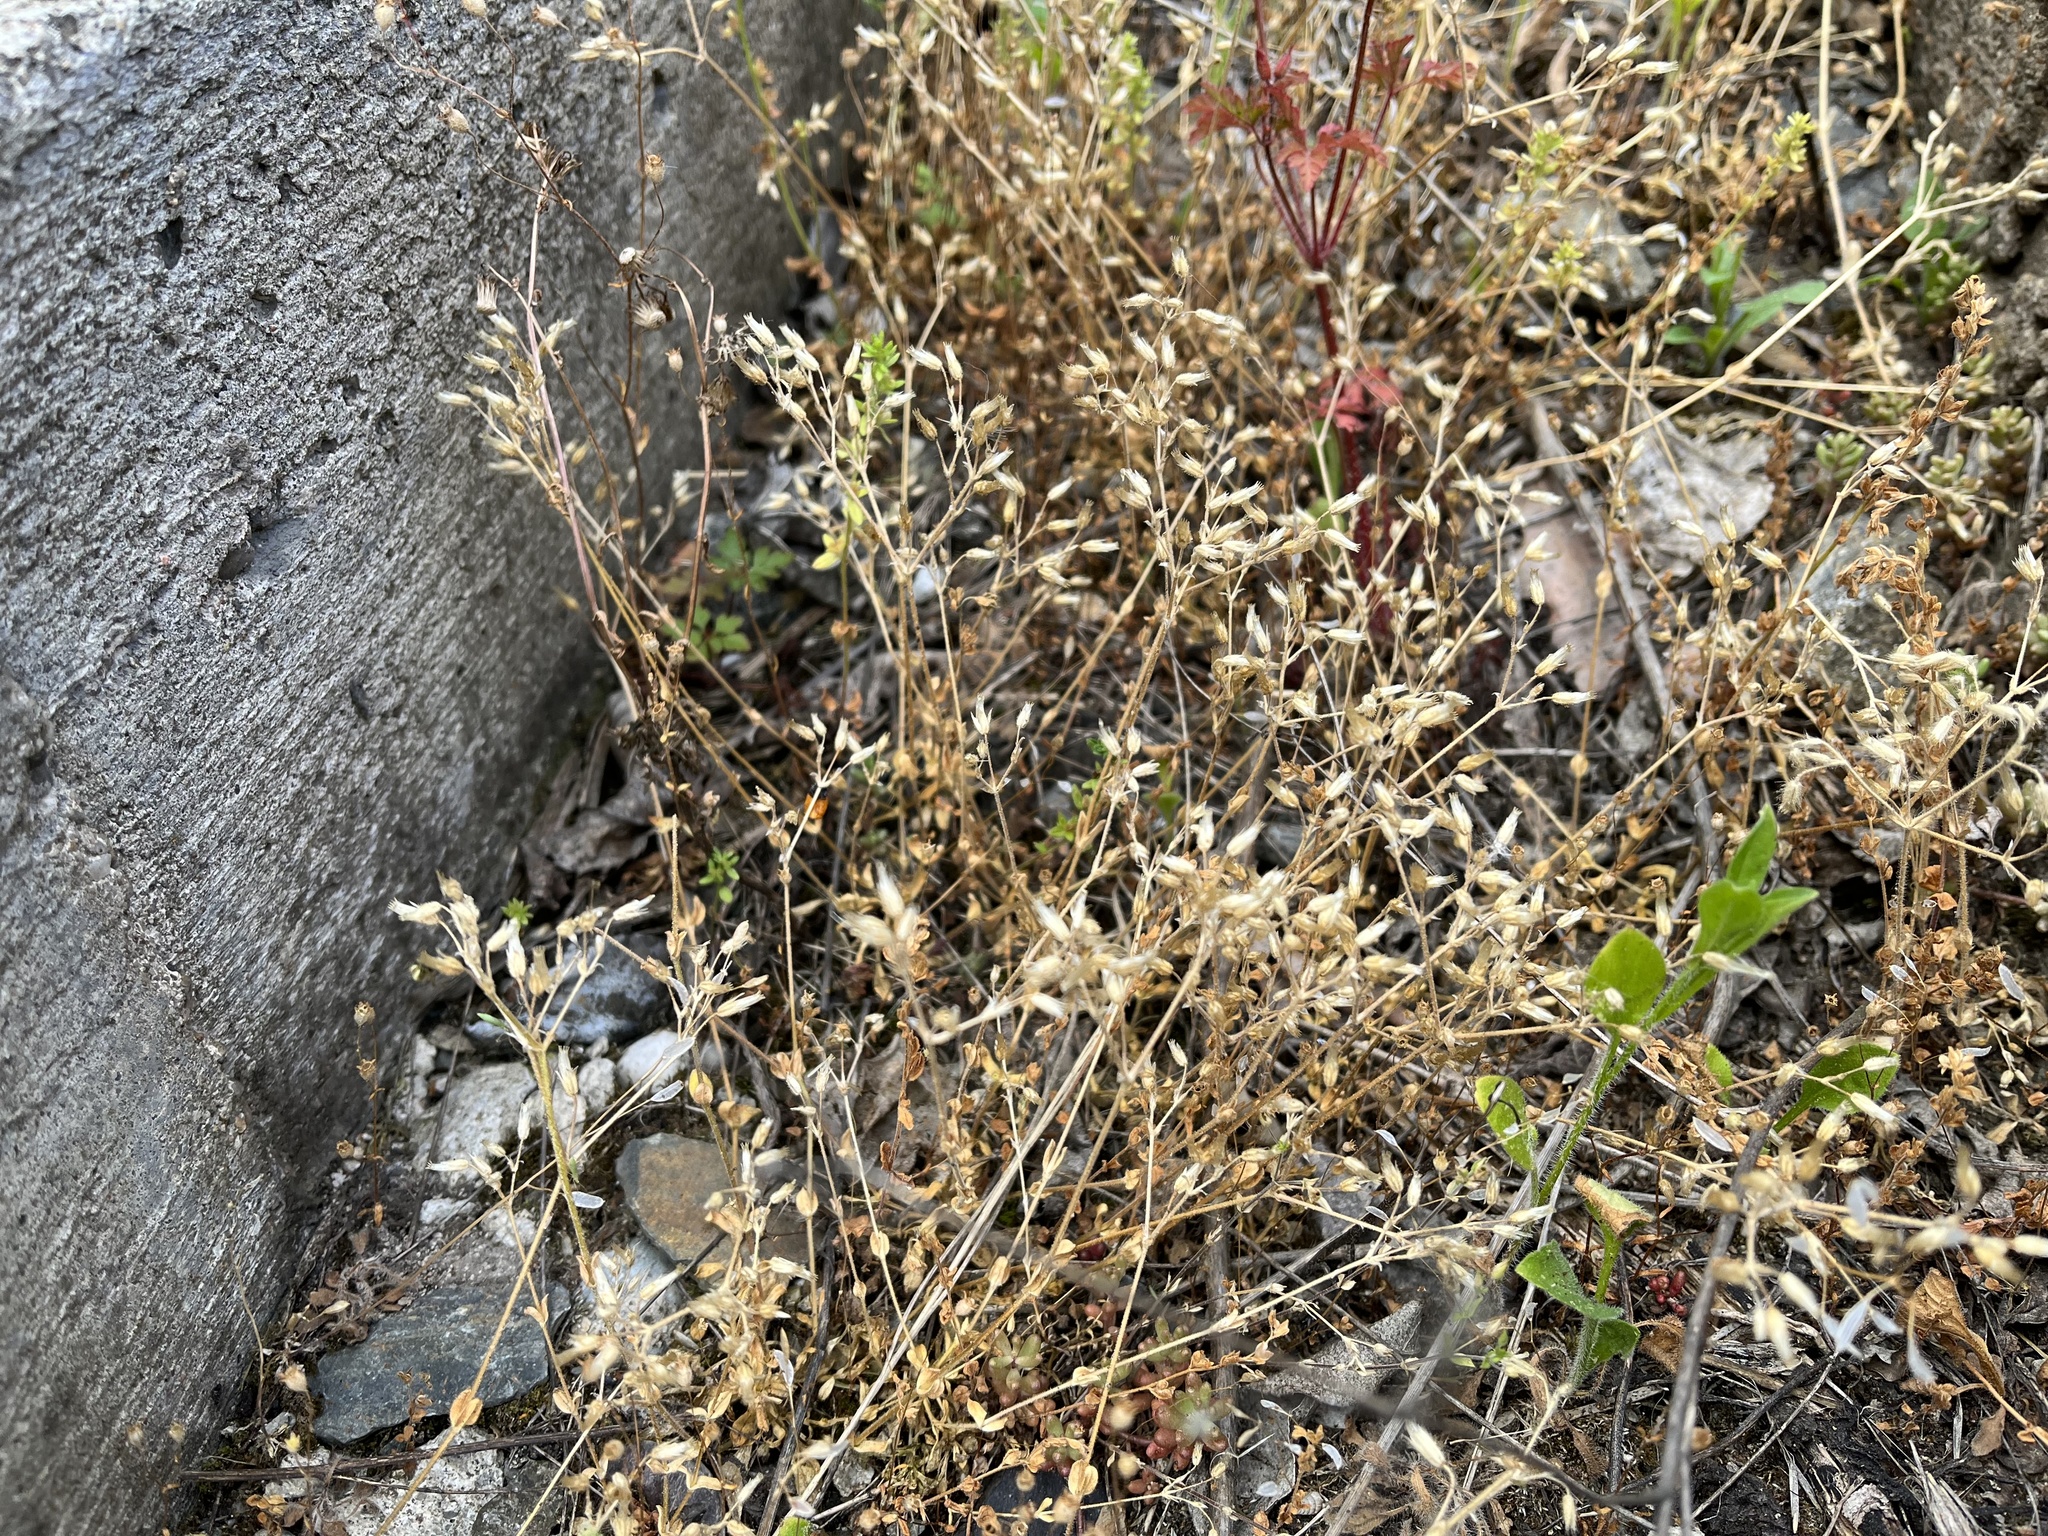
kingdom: Plantae
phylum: Tracheophyta
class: Magnoliopsida
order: Caryophyllales
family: Caryophyllaceae
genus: Cerastium
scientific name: Cerastium semidecandrum
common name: Little mouse-ear
